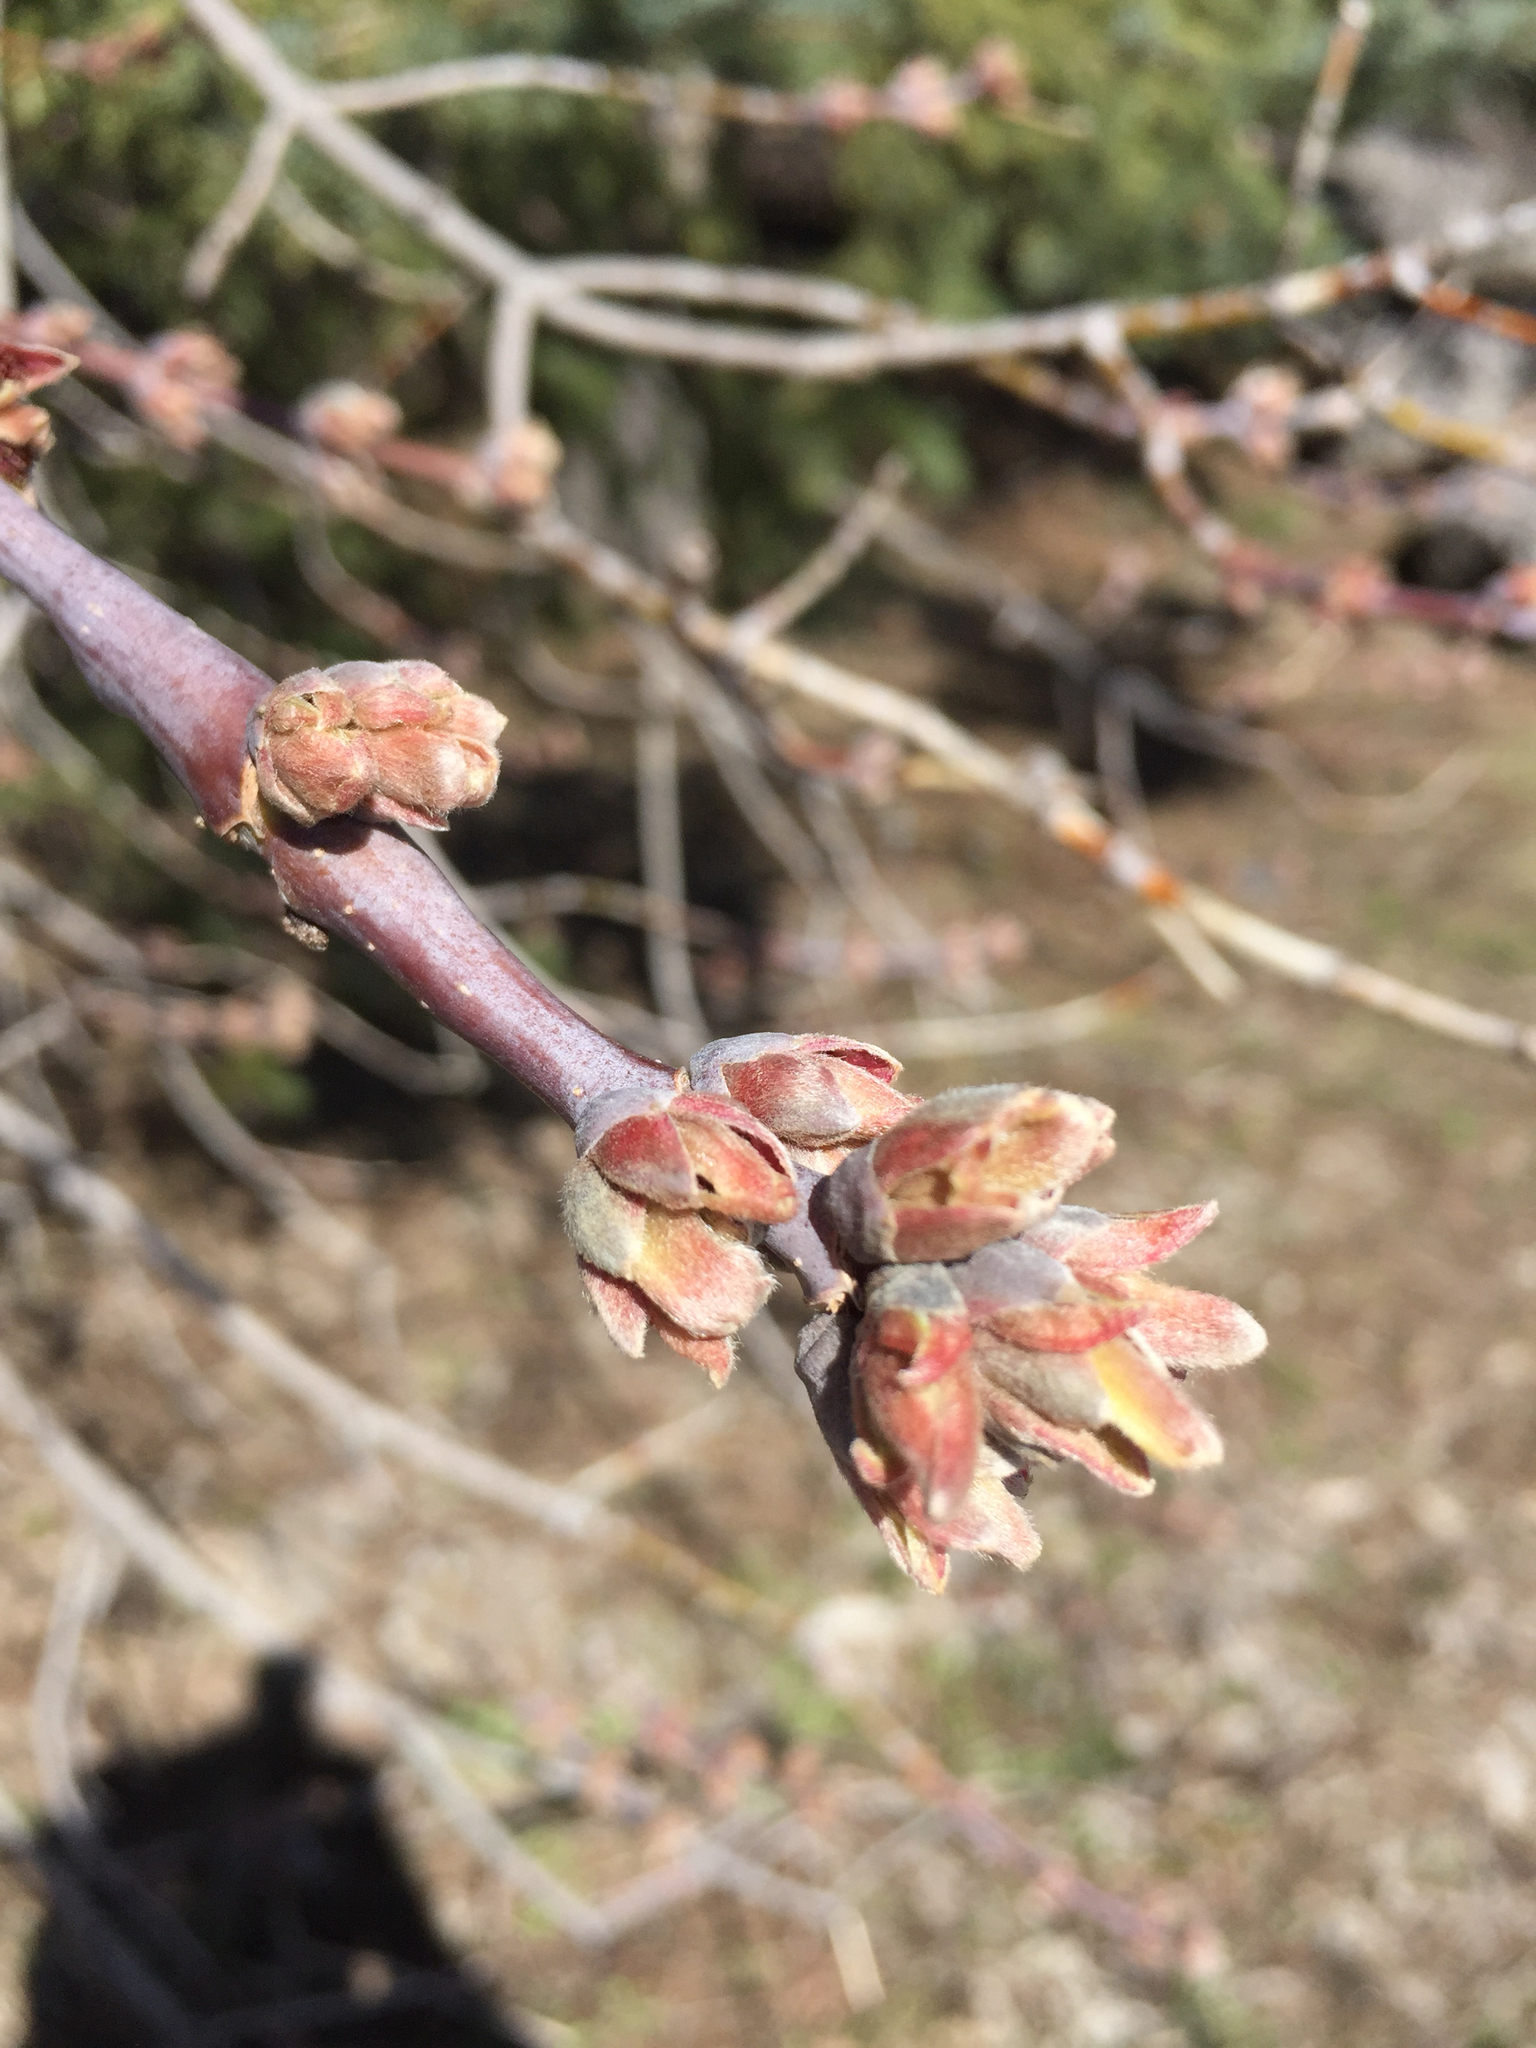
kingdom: Plantae
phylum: Tracheophyta
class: Magnoliopsida
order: Sapindales
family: Sapindaceae
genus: Acer
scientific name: Acer negundo
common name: Ashleaf maple
